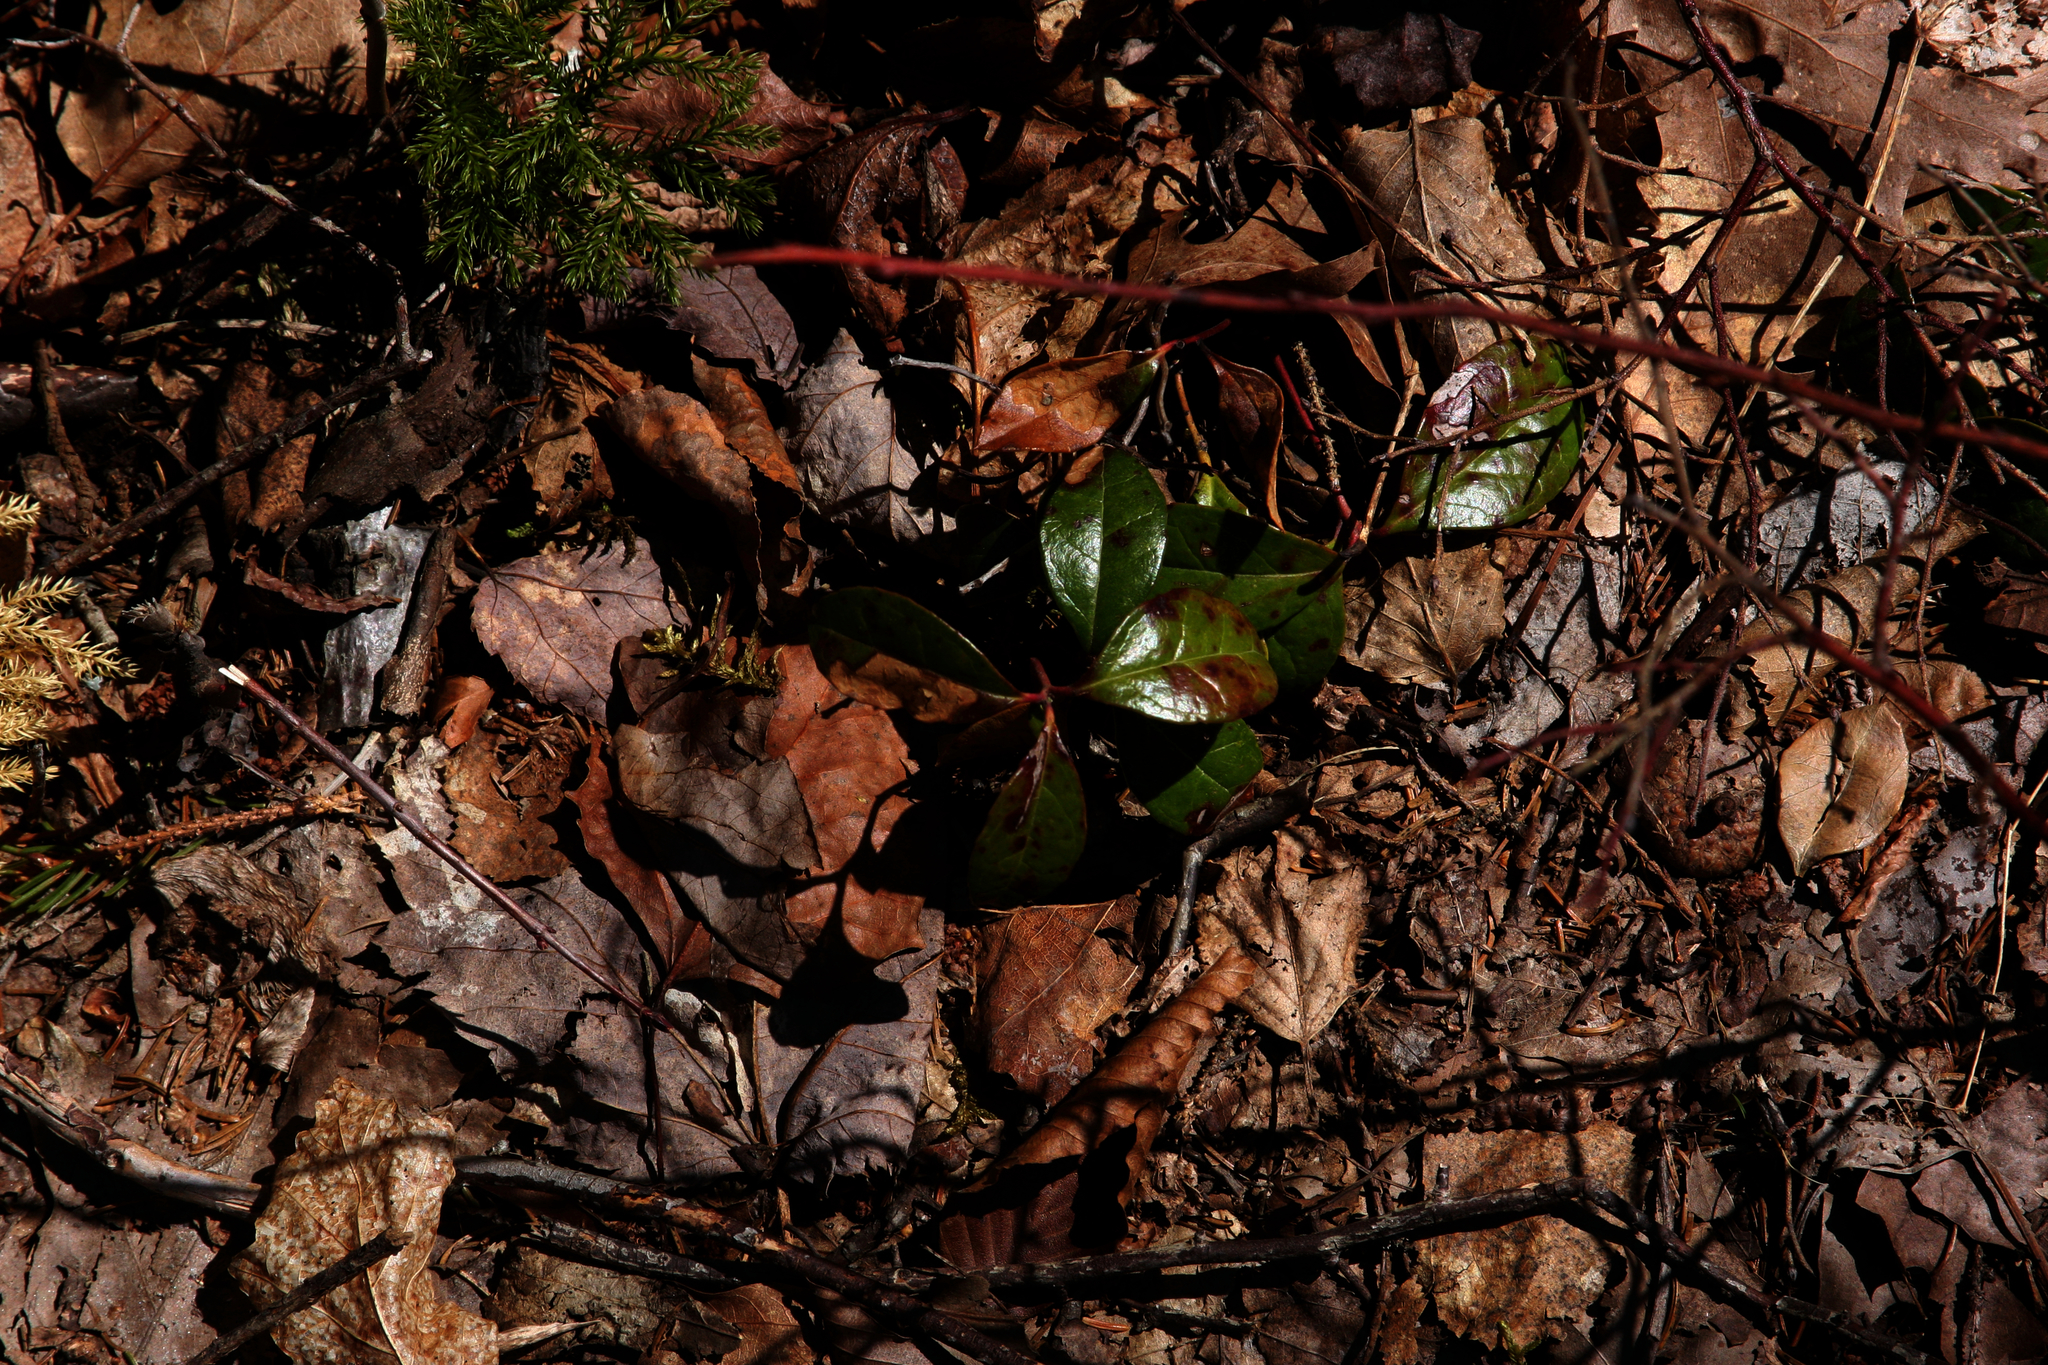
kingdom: Plantae
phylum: Tracheophyta
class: Magnoliopsida
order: Ericales
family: Ericaceae
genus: Gaultheria
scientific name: Gaultheria procumbens
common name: Checkerberry
